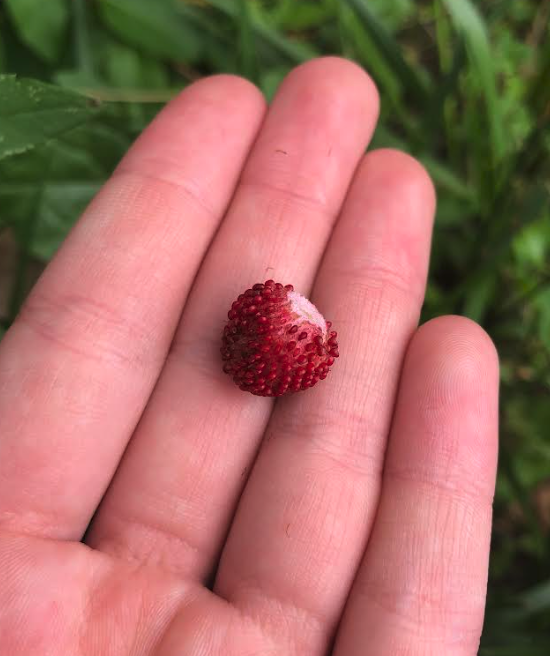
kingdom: Plantae
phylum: Tracheophyta
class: Magnoliopsida
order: Rosales
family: Rosaceae
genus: Potentilla
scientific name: Potentilla indica
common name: Yellow-flowered strawberry
